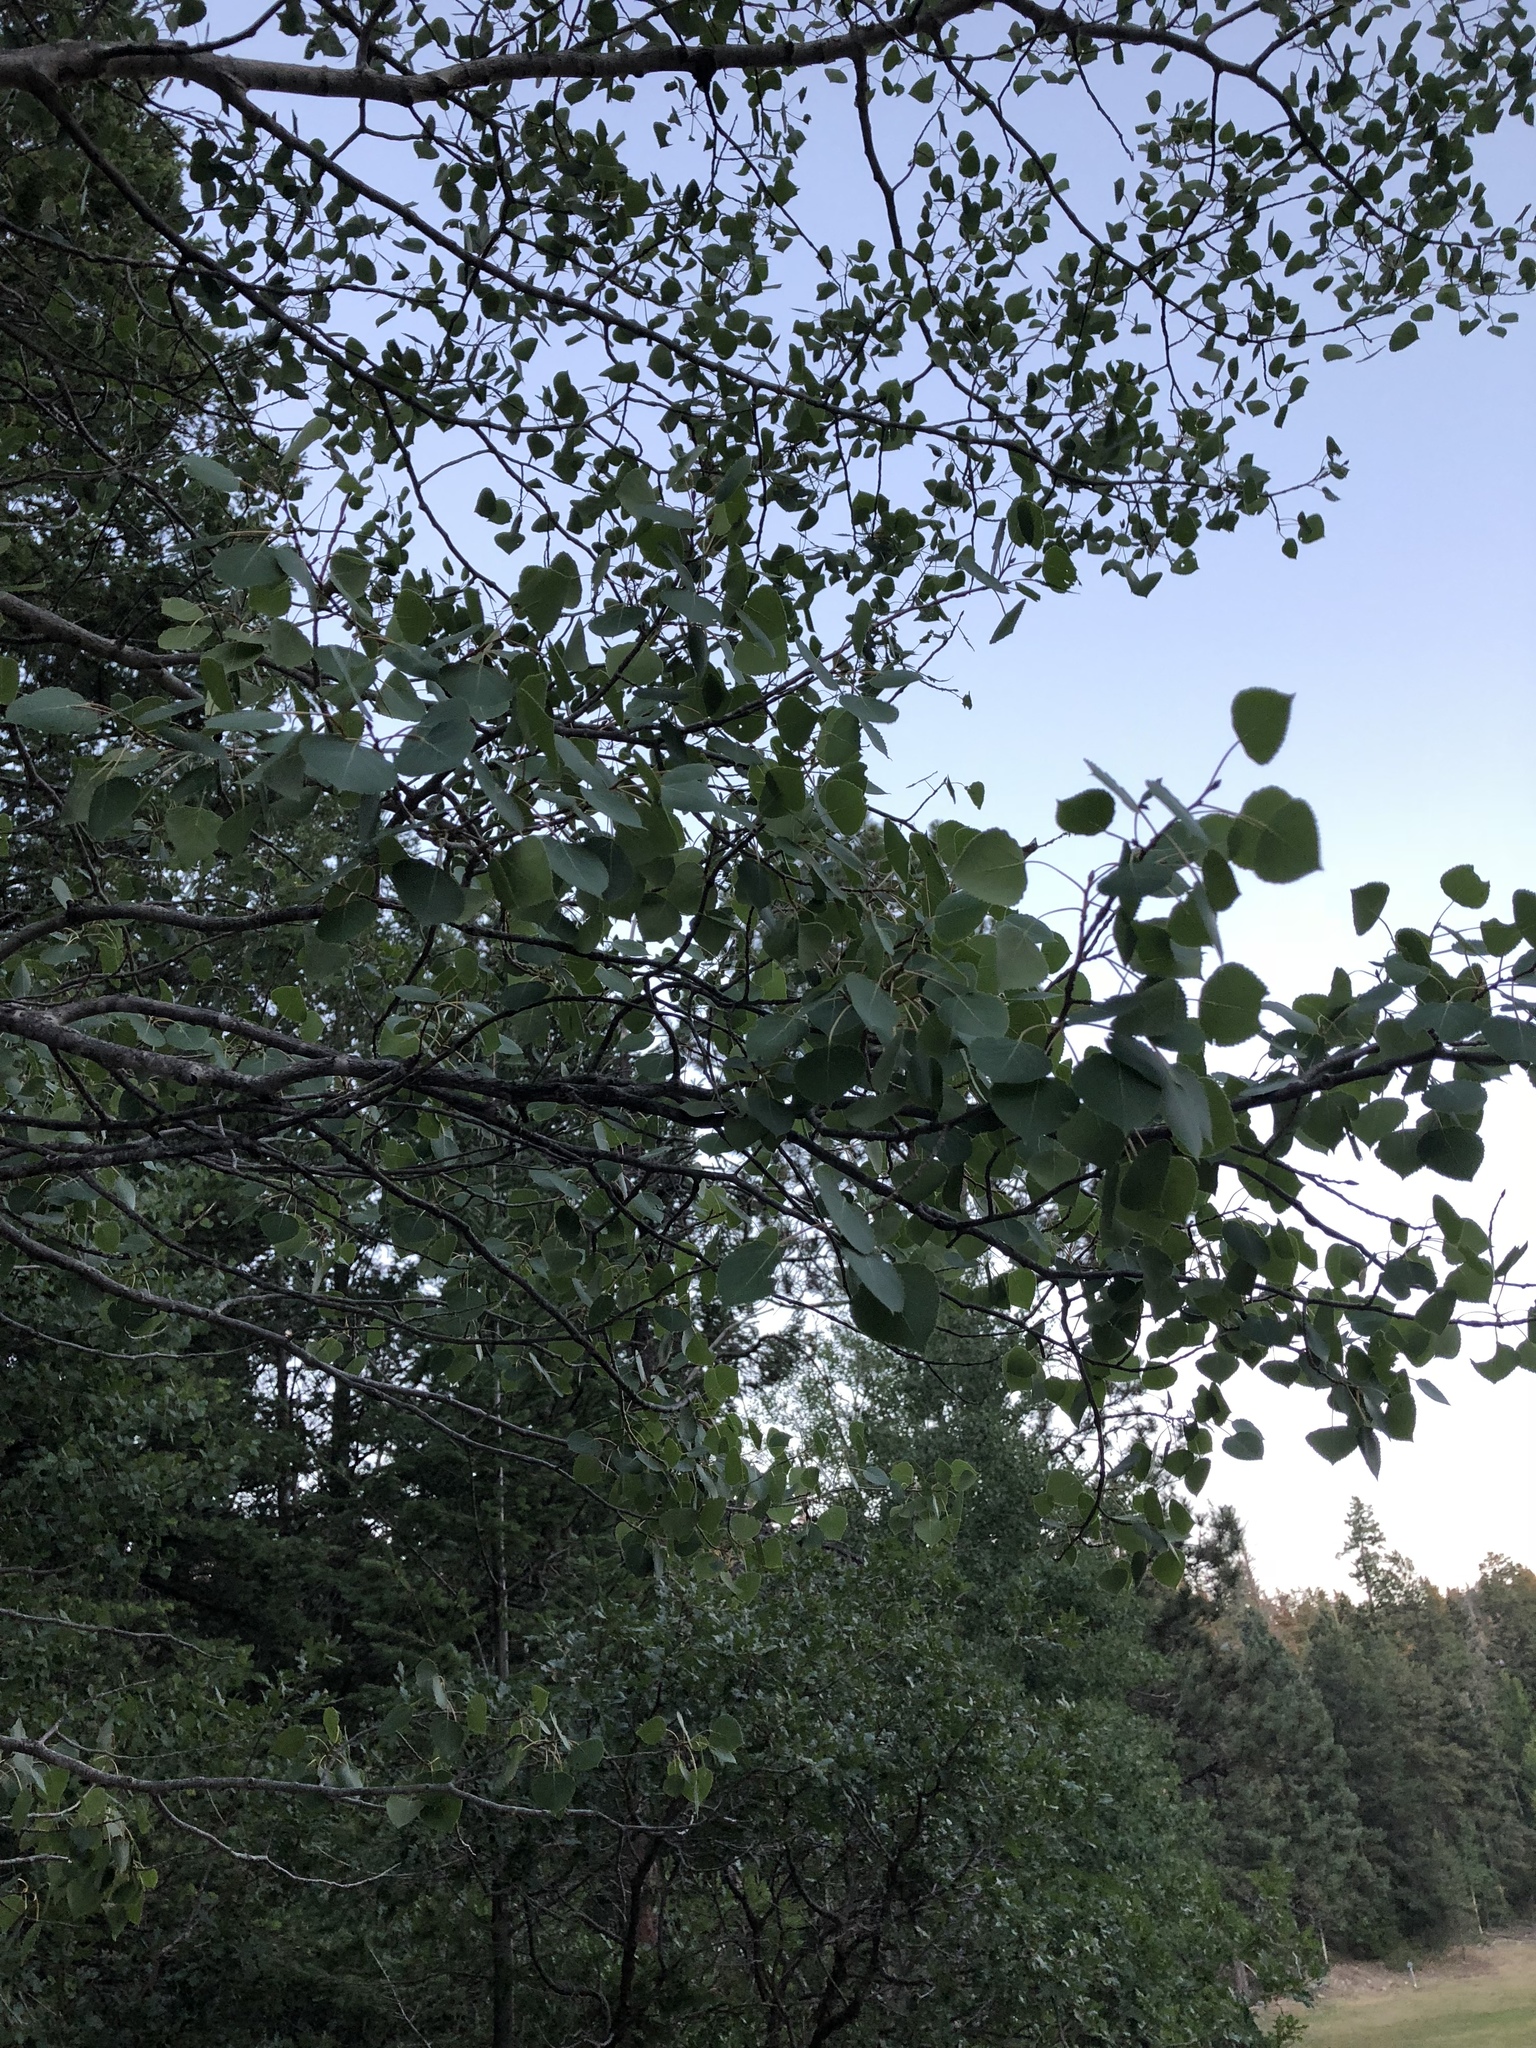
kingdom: Plantae
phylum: Tracheophyta
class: Magnoliopsida
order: Malpighiales
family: Salicaceae
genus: Populus
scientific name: Populus tremuloides
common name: Quaking aspen
